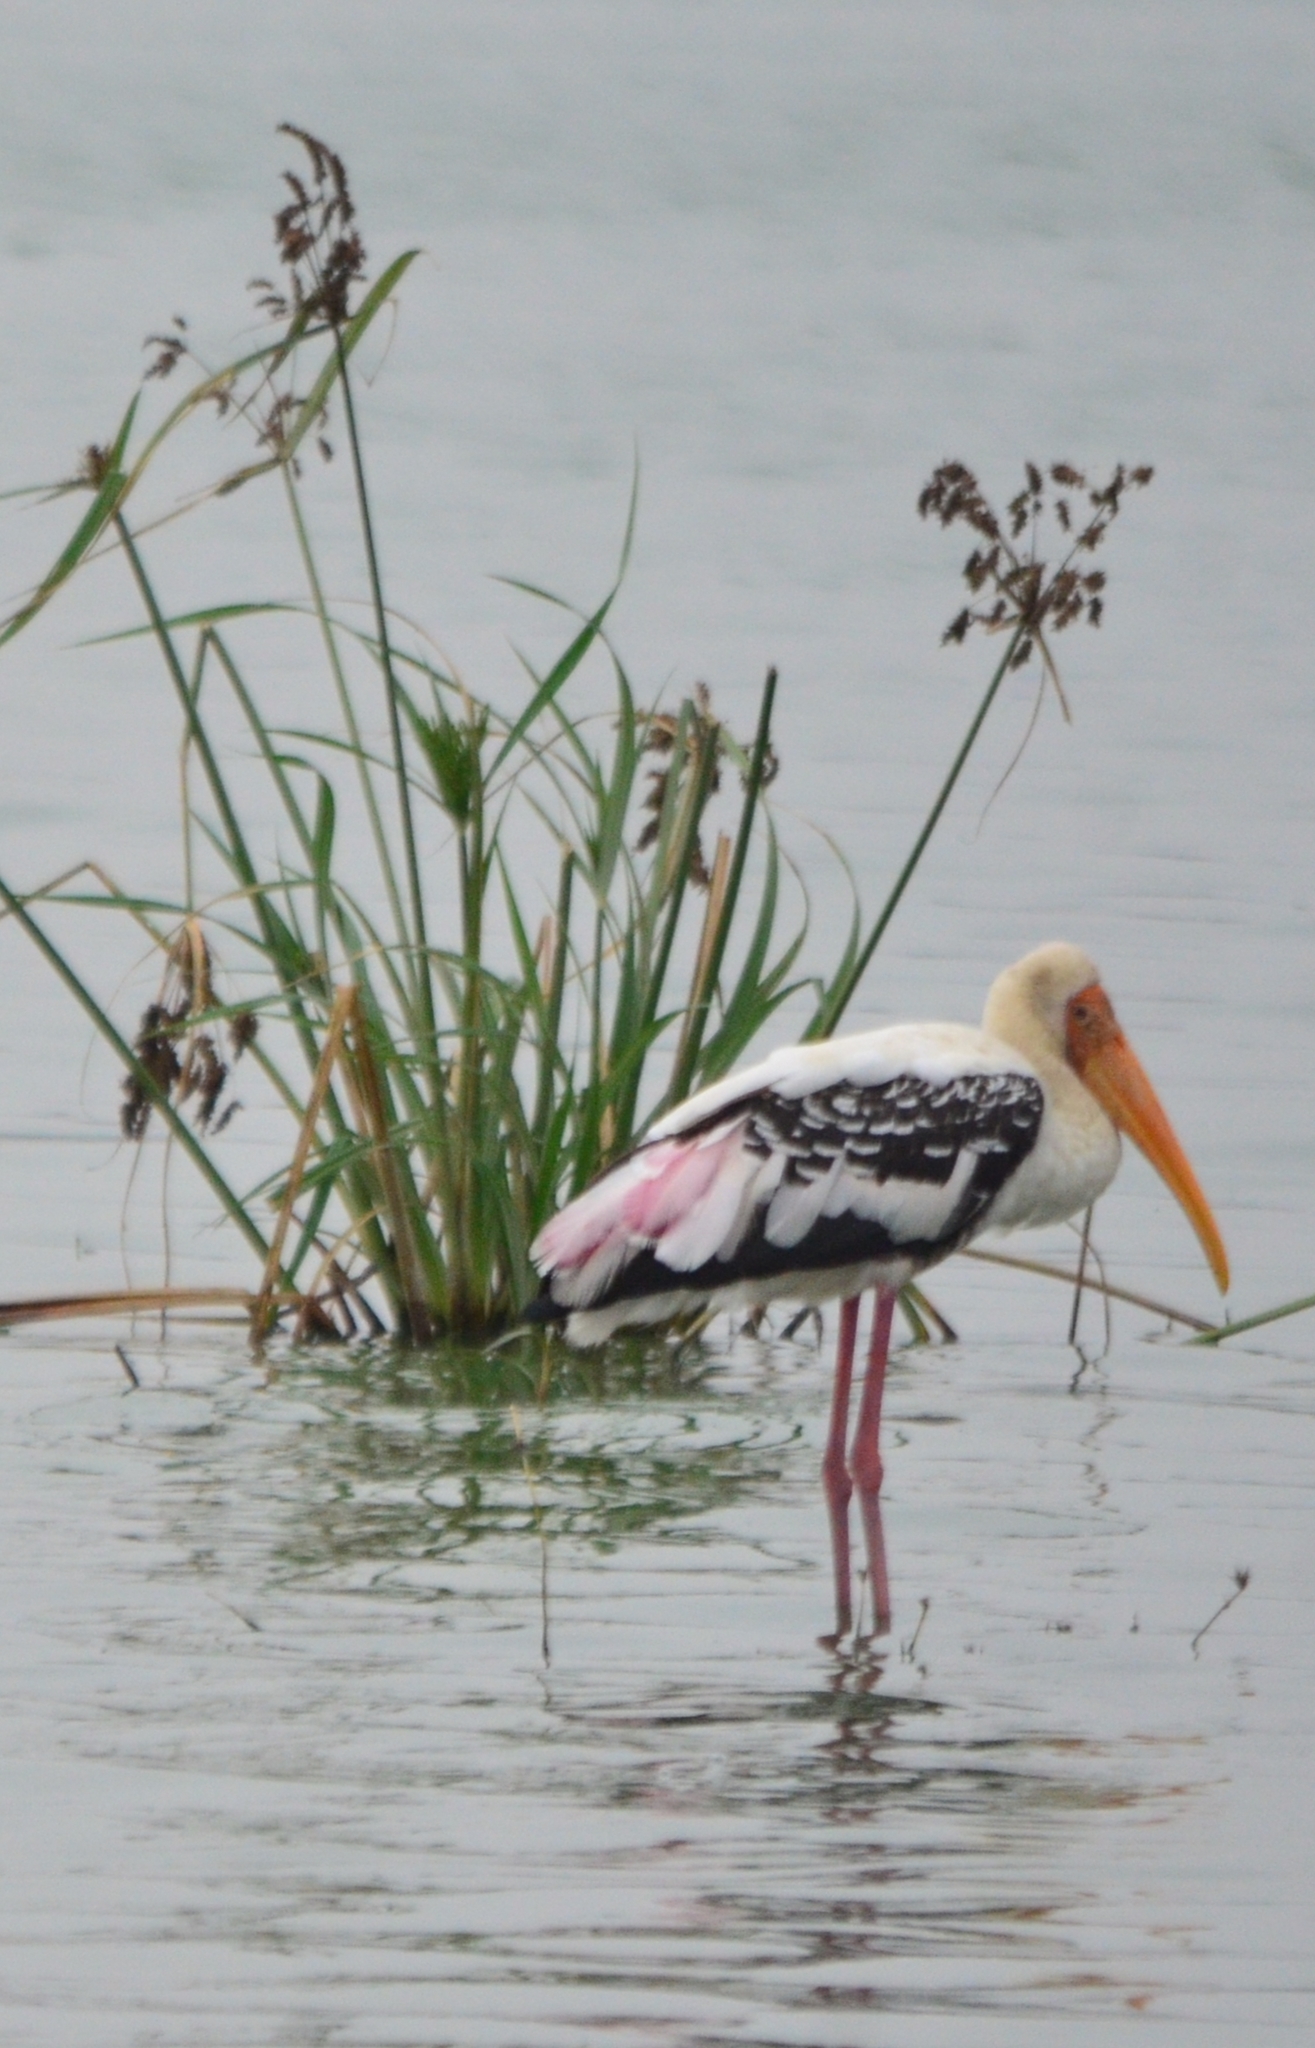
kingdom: Animalia
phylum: Chordata
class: Aves
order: Ciconiiformes
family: Ciconiidae
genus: Mycteria
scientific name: Mycteria leucocephala
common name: Painted stork
